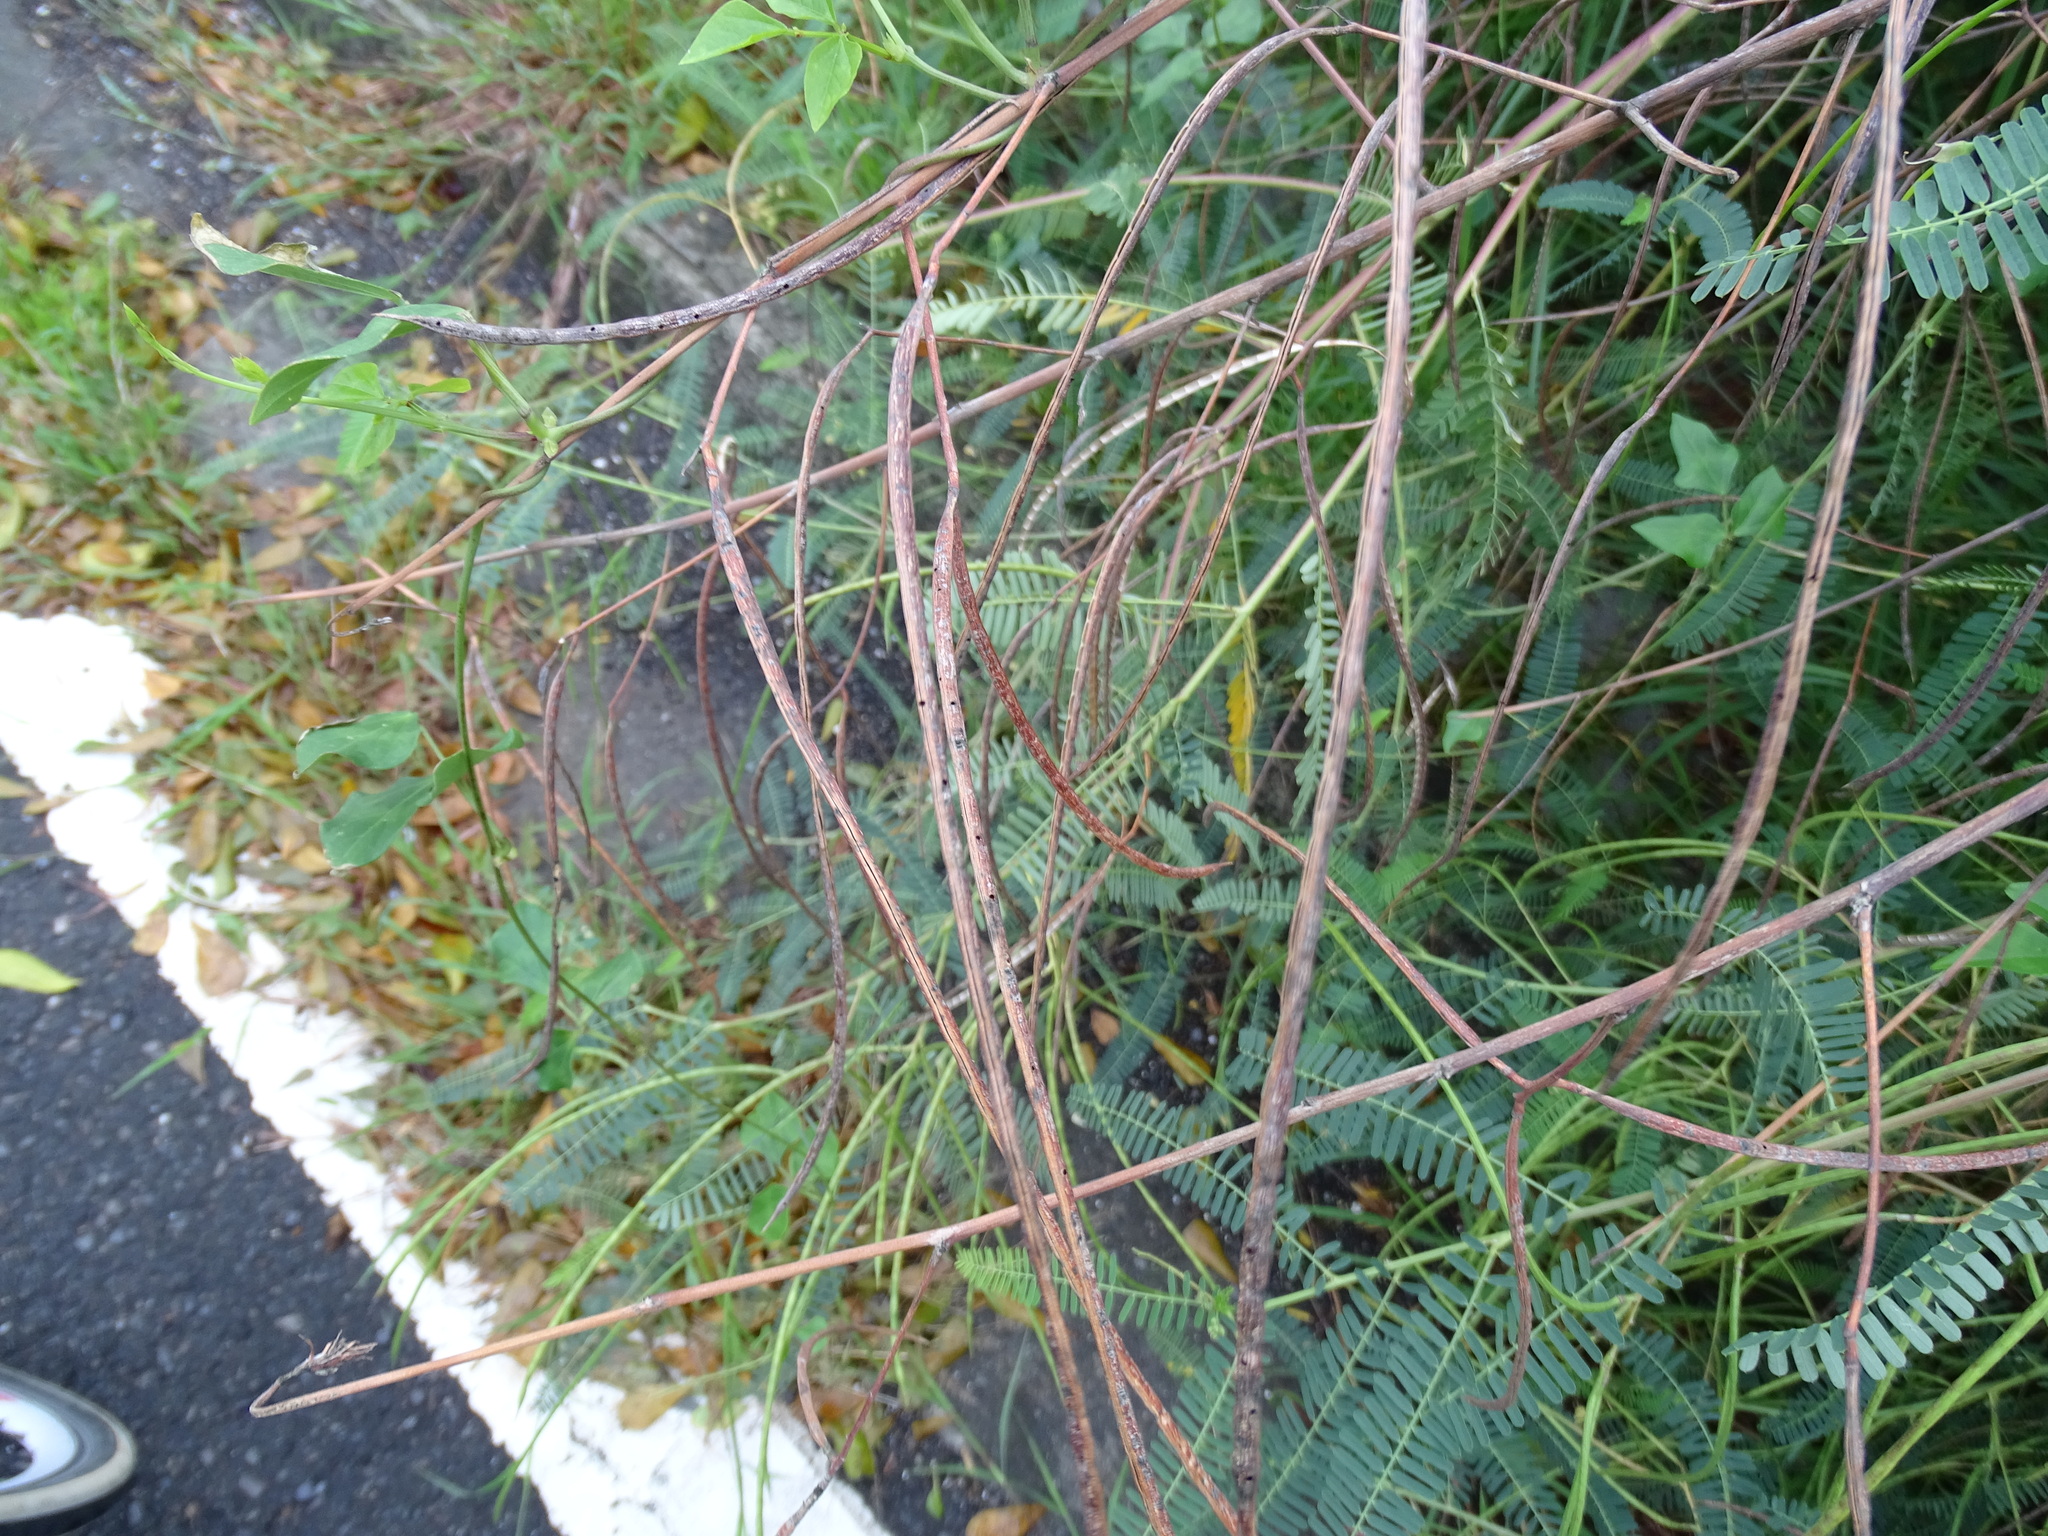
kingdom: Plantae
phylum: Tracheophyta
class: Magnoliopsida
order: Fabales
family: Fabaceae
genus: Sesbania
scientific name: Sesbania cannabina
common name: Canicha
